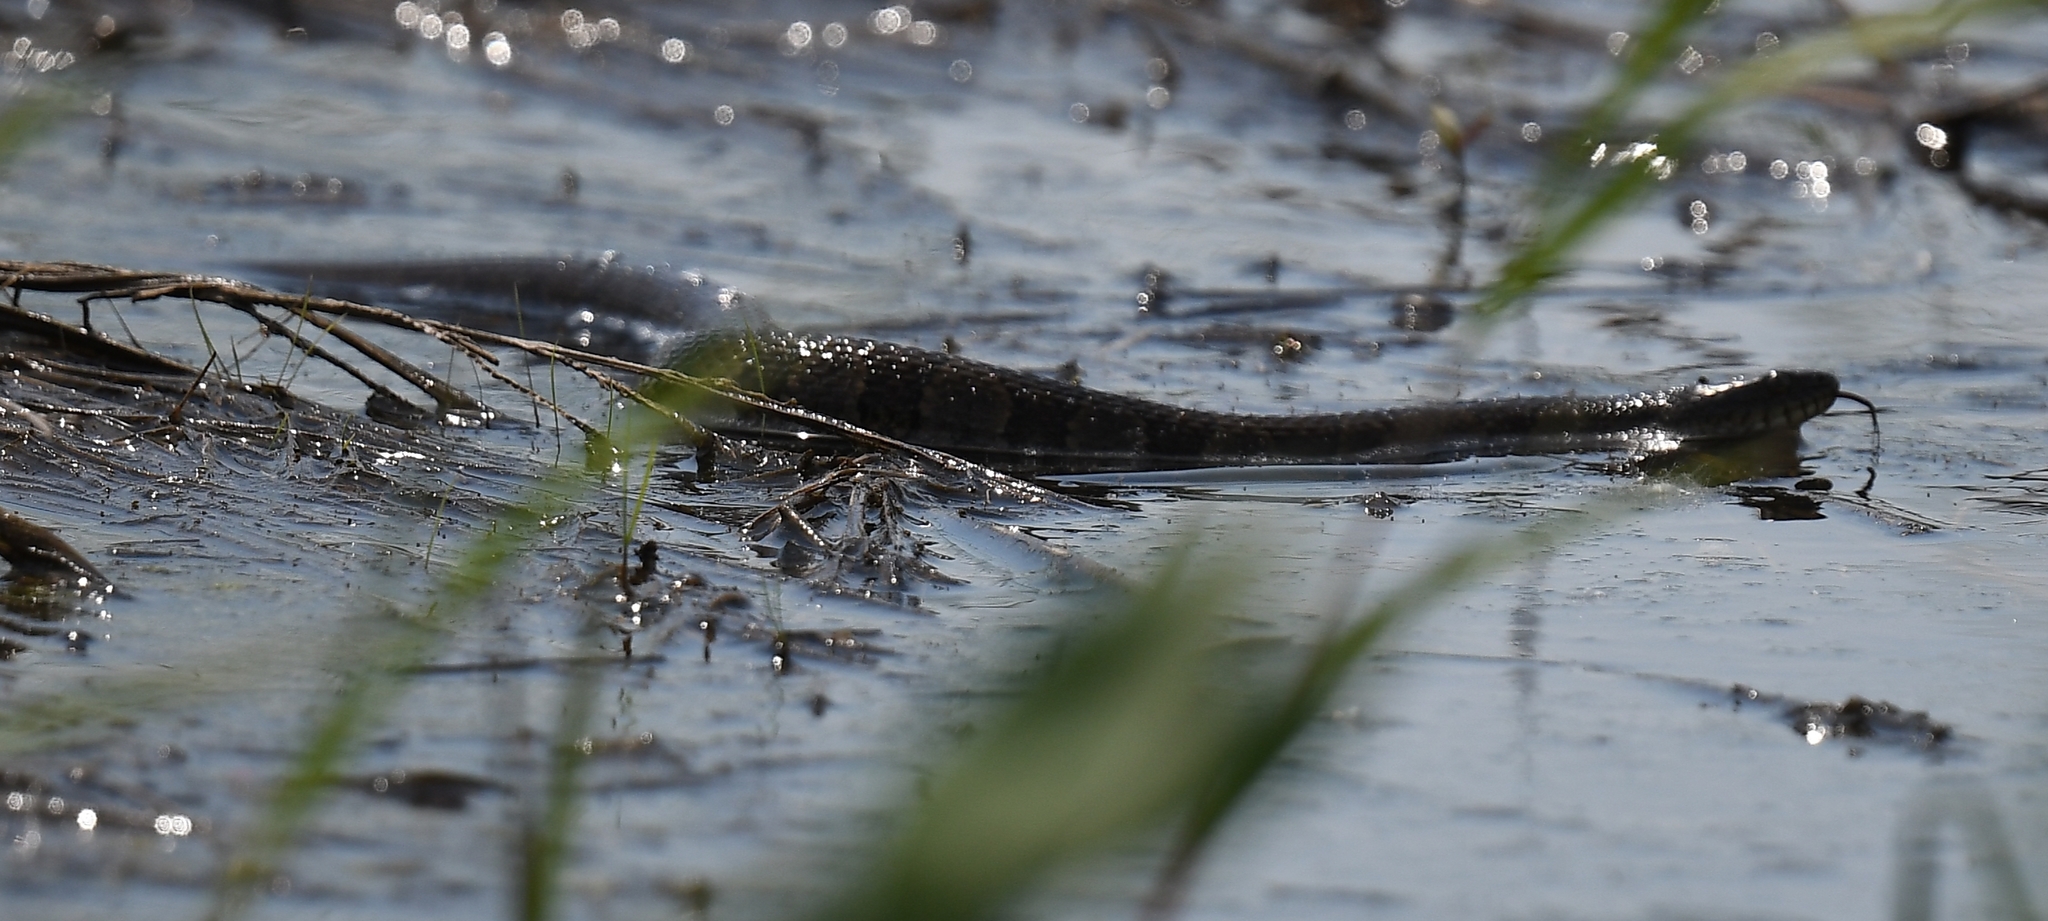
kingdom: Animalia
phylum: Chordata
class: Squamata
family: Colubridae
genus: Nerodia
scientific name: Nerodia sipedon
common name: Northern water snake
